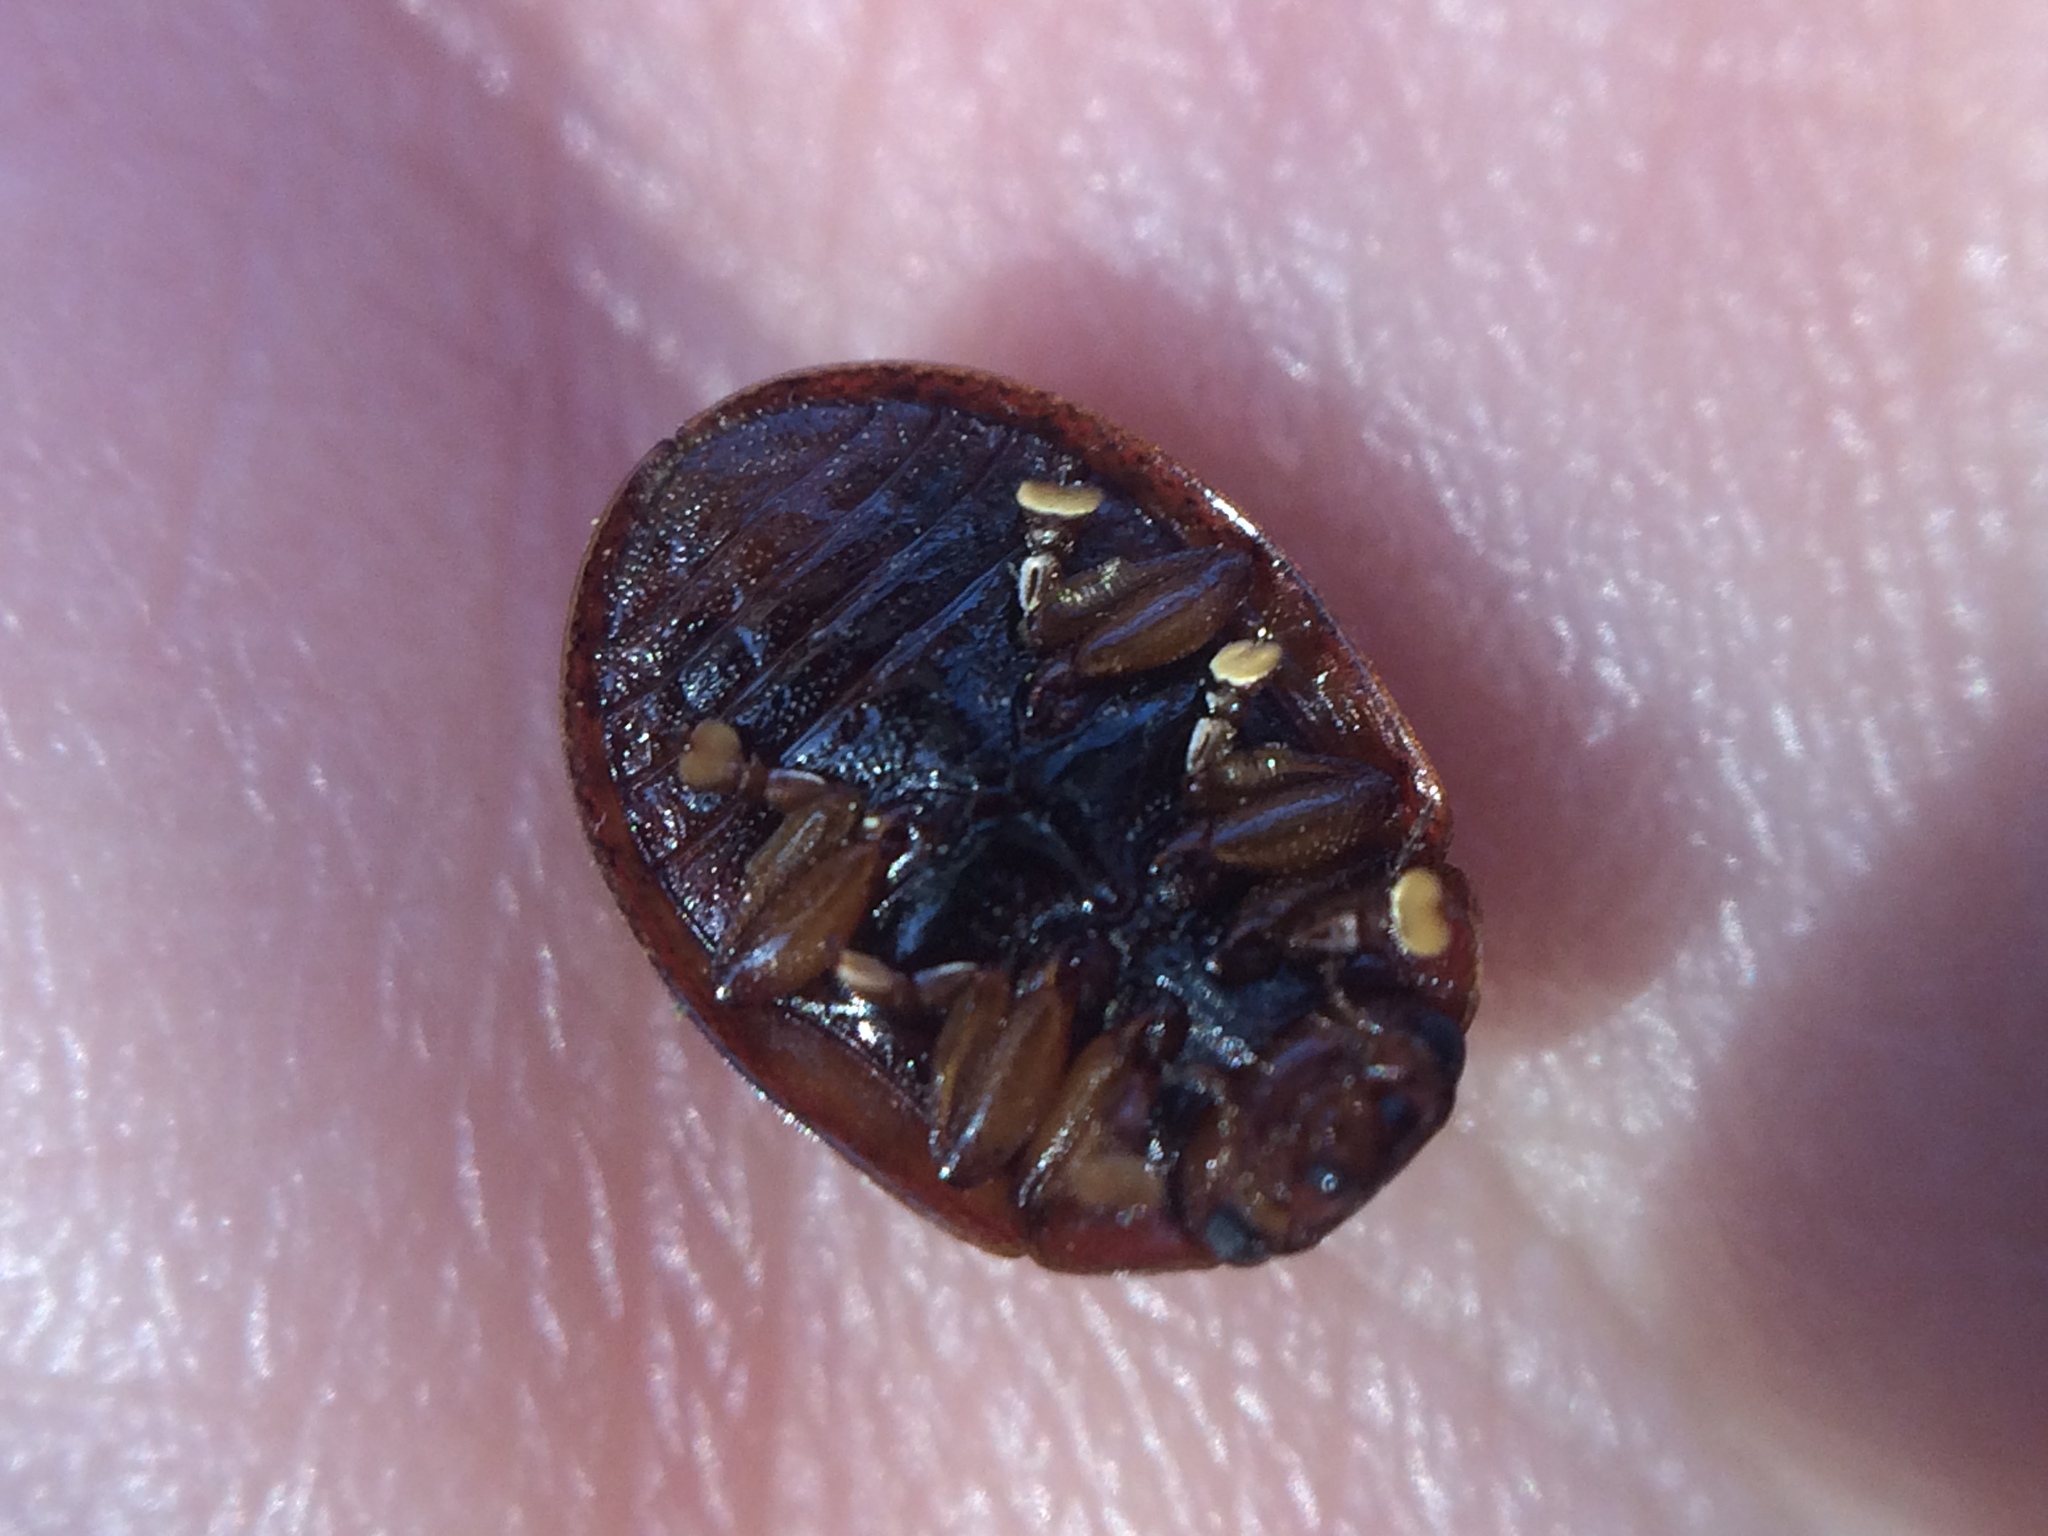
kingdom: Animalia
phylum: Arthropoda
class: Insecta
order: Coleoptera
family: Chrysomelidae
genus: Trachymela
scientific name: Trachymela sloanei
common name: Australian tortoise beetle
